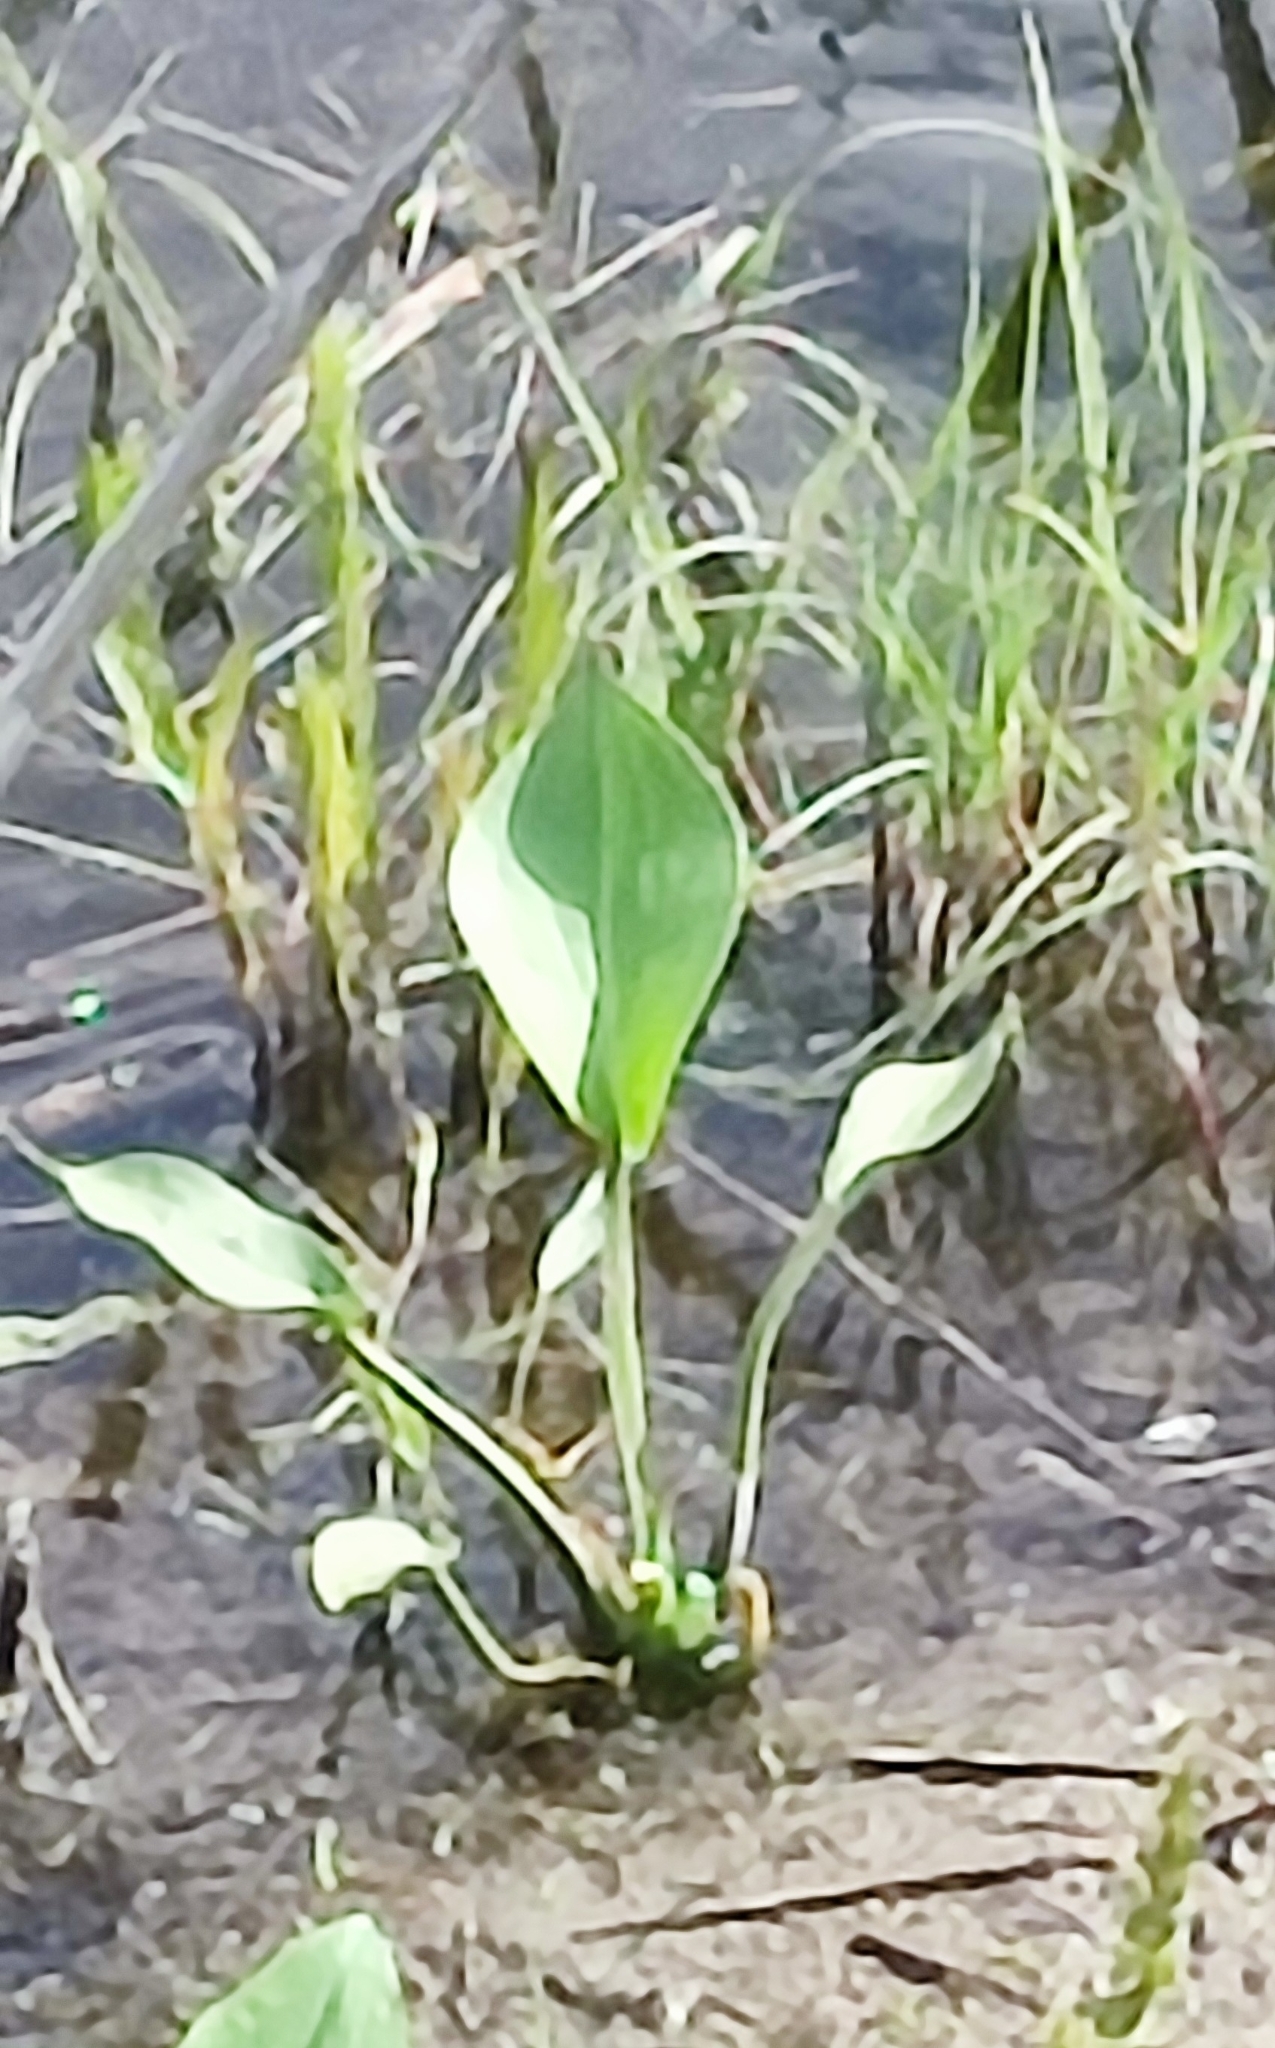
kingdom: Plantae
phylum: Tracheophyta
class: Liliopsida
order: Alismatales
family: Alismataceae
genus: Alisma
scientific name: Alisma plantago-aquatica
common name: Water-plantain
